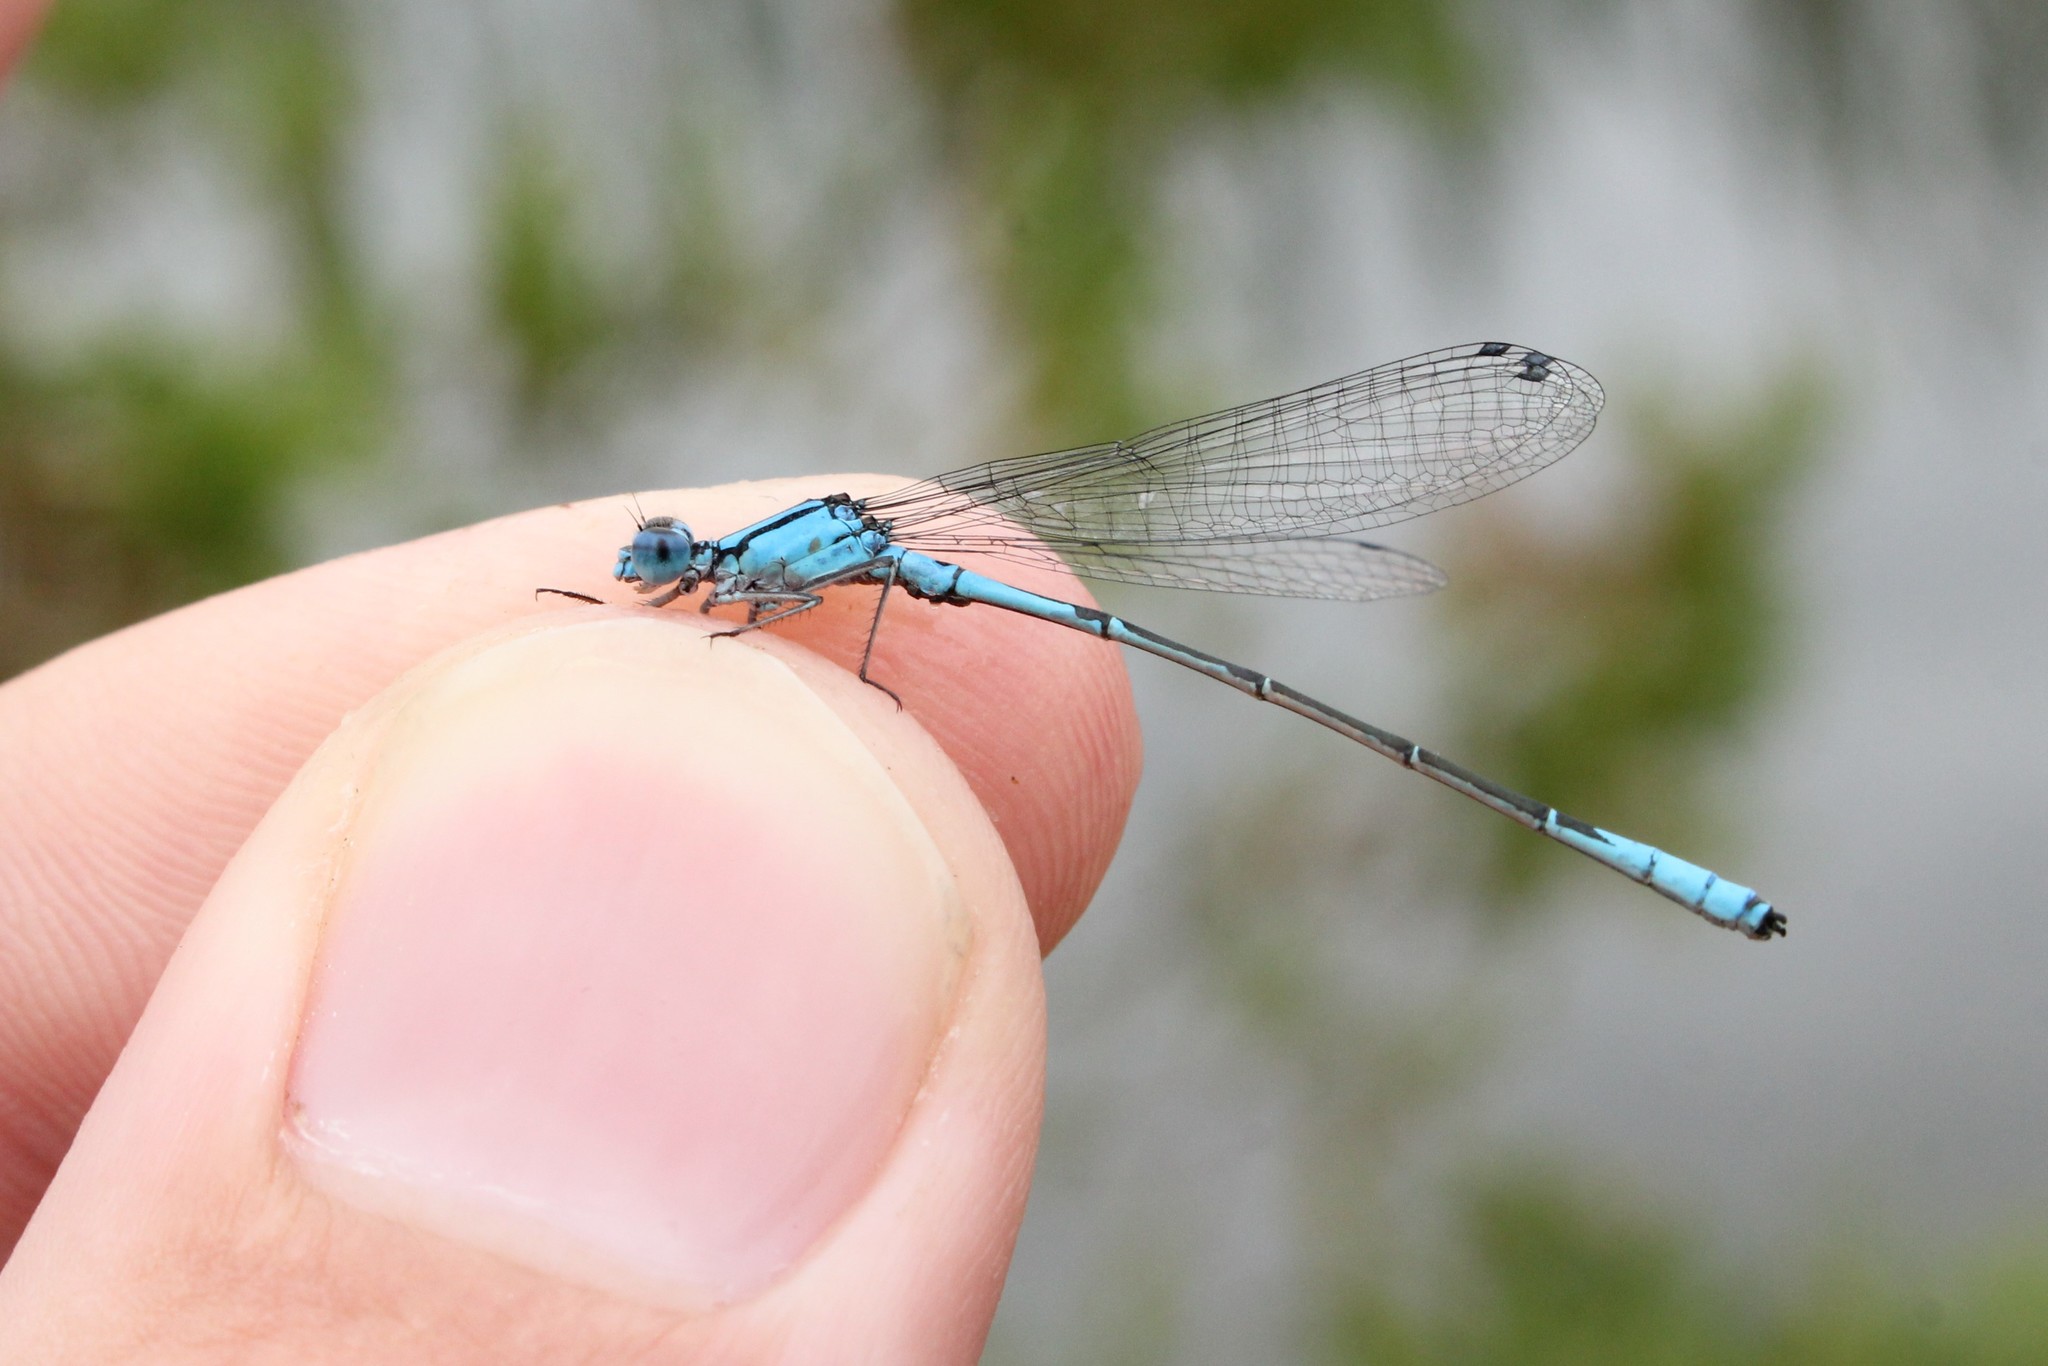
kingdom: Animalia
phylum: Arthropoda
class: Insecta
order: Odonata
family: Coenagrionidae
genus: Enallagma
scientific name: Enallagma aspersum
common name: Azure bluet
